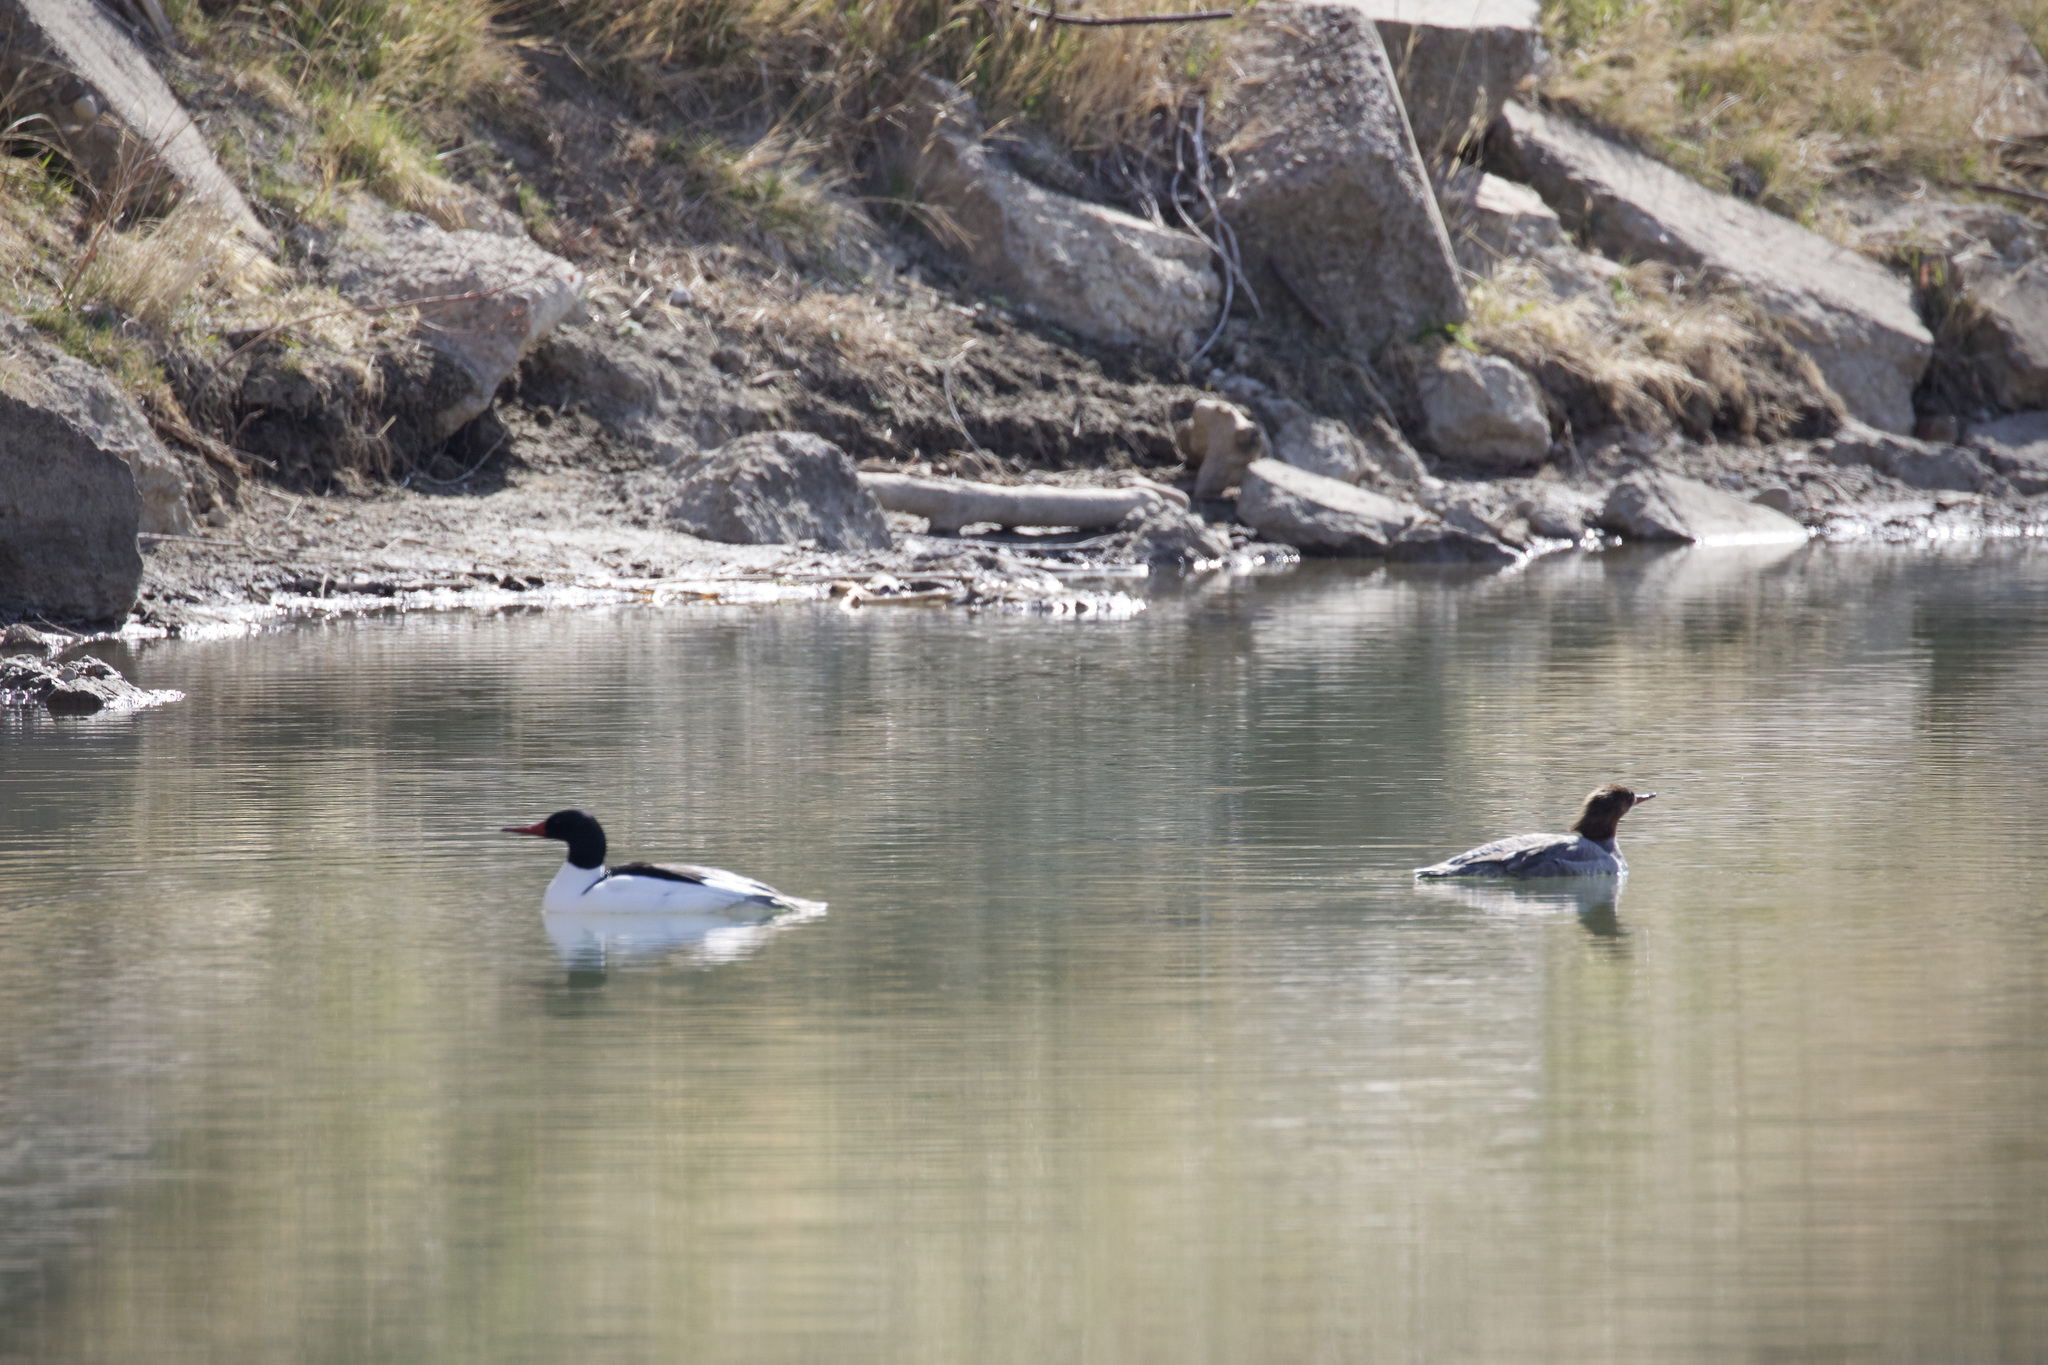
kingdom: Animalia
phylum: Chordata
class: Aves
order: Anseriformes
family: Anatidae
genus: Mergus
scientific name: Mergus merganser
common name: Common merganser
